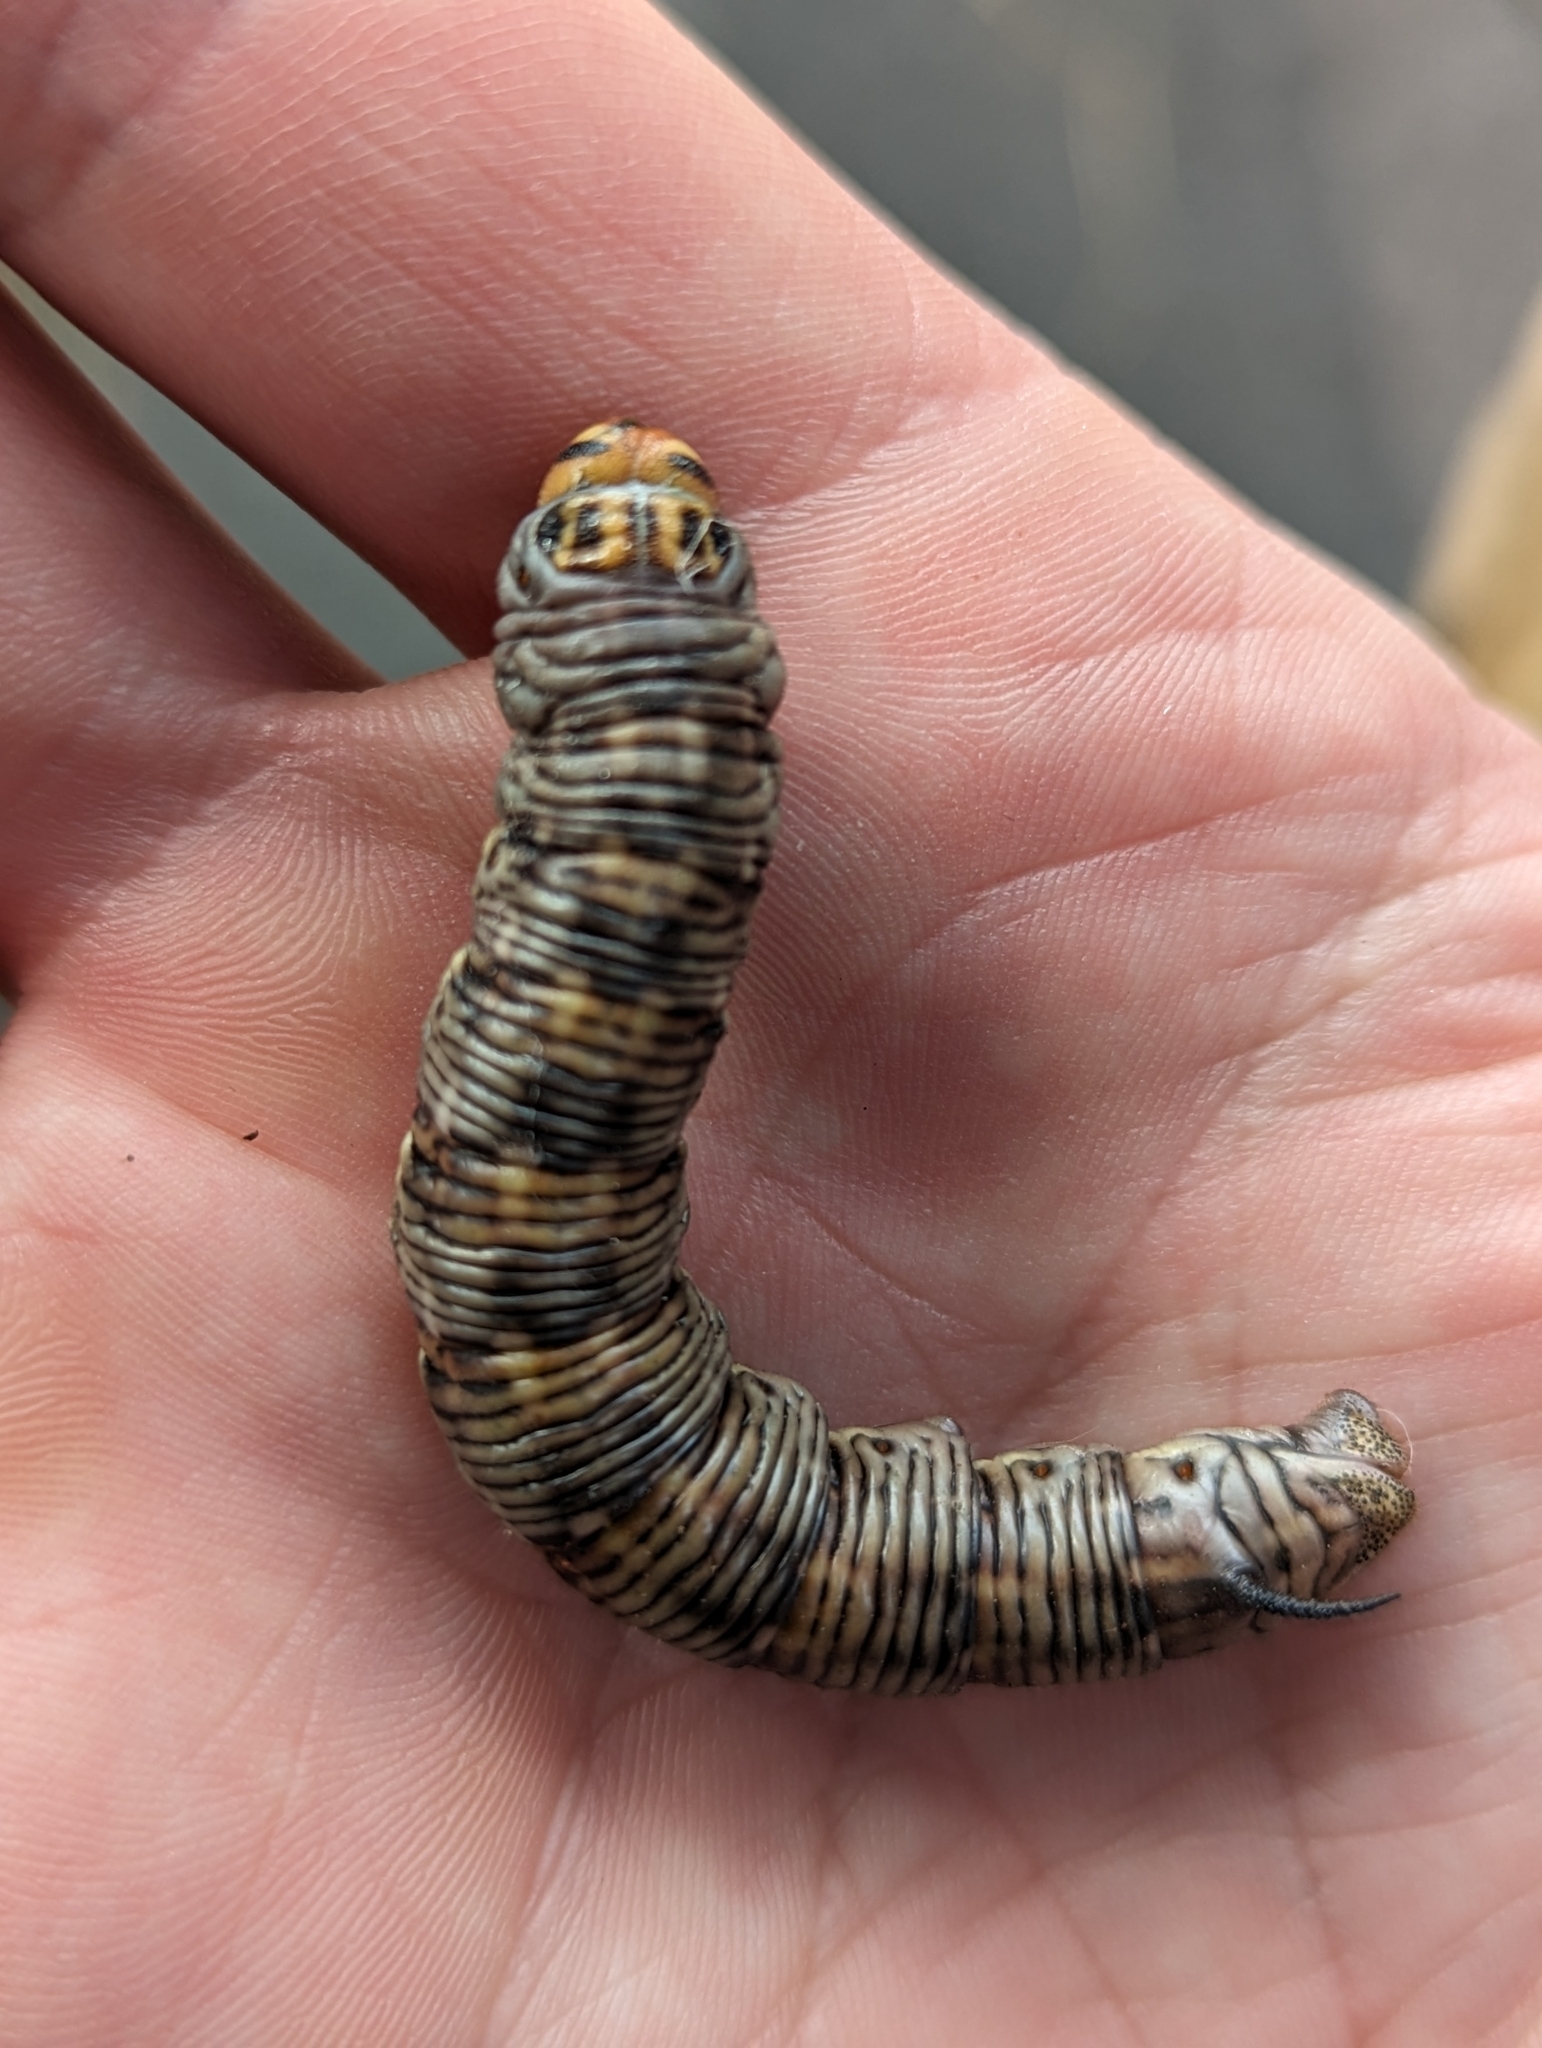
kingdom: Animalia
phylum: Arthropoda
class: Insecta
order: Lepidoptera
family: Sphingidae
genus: Sphinx
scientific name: Sphinx pinastri
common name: Pine hawk-moth
